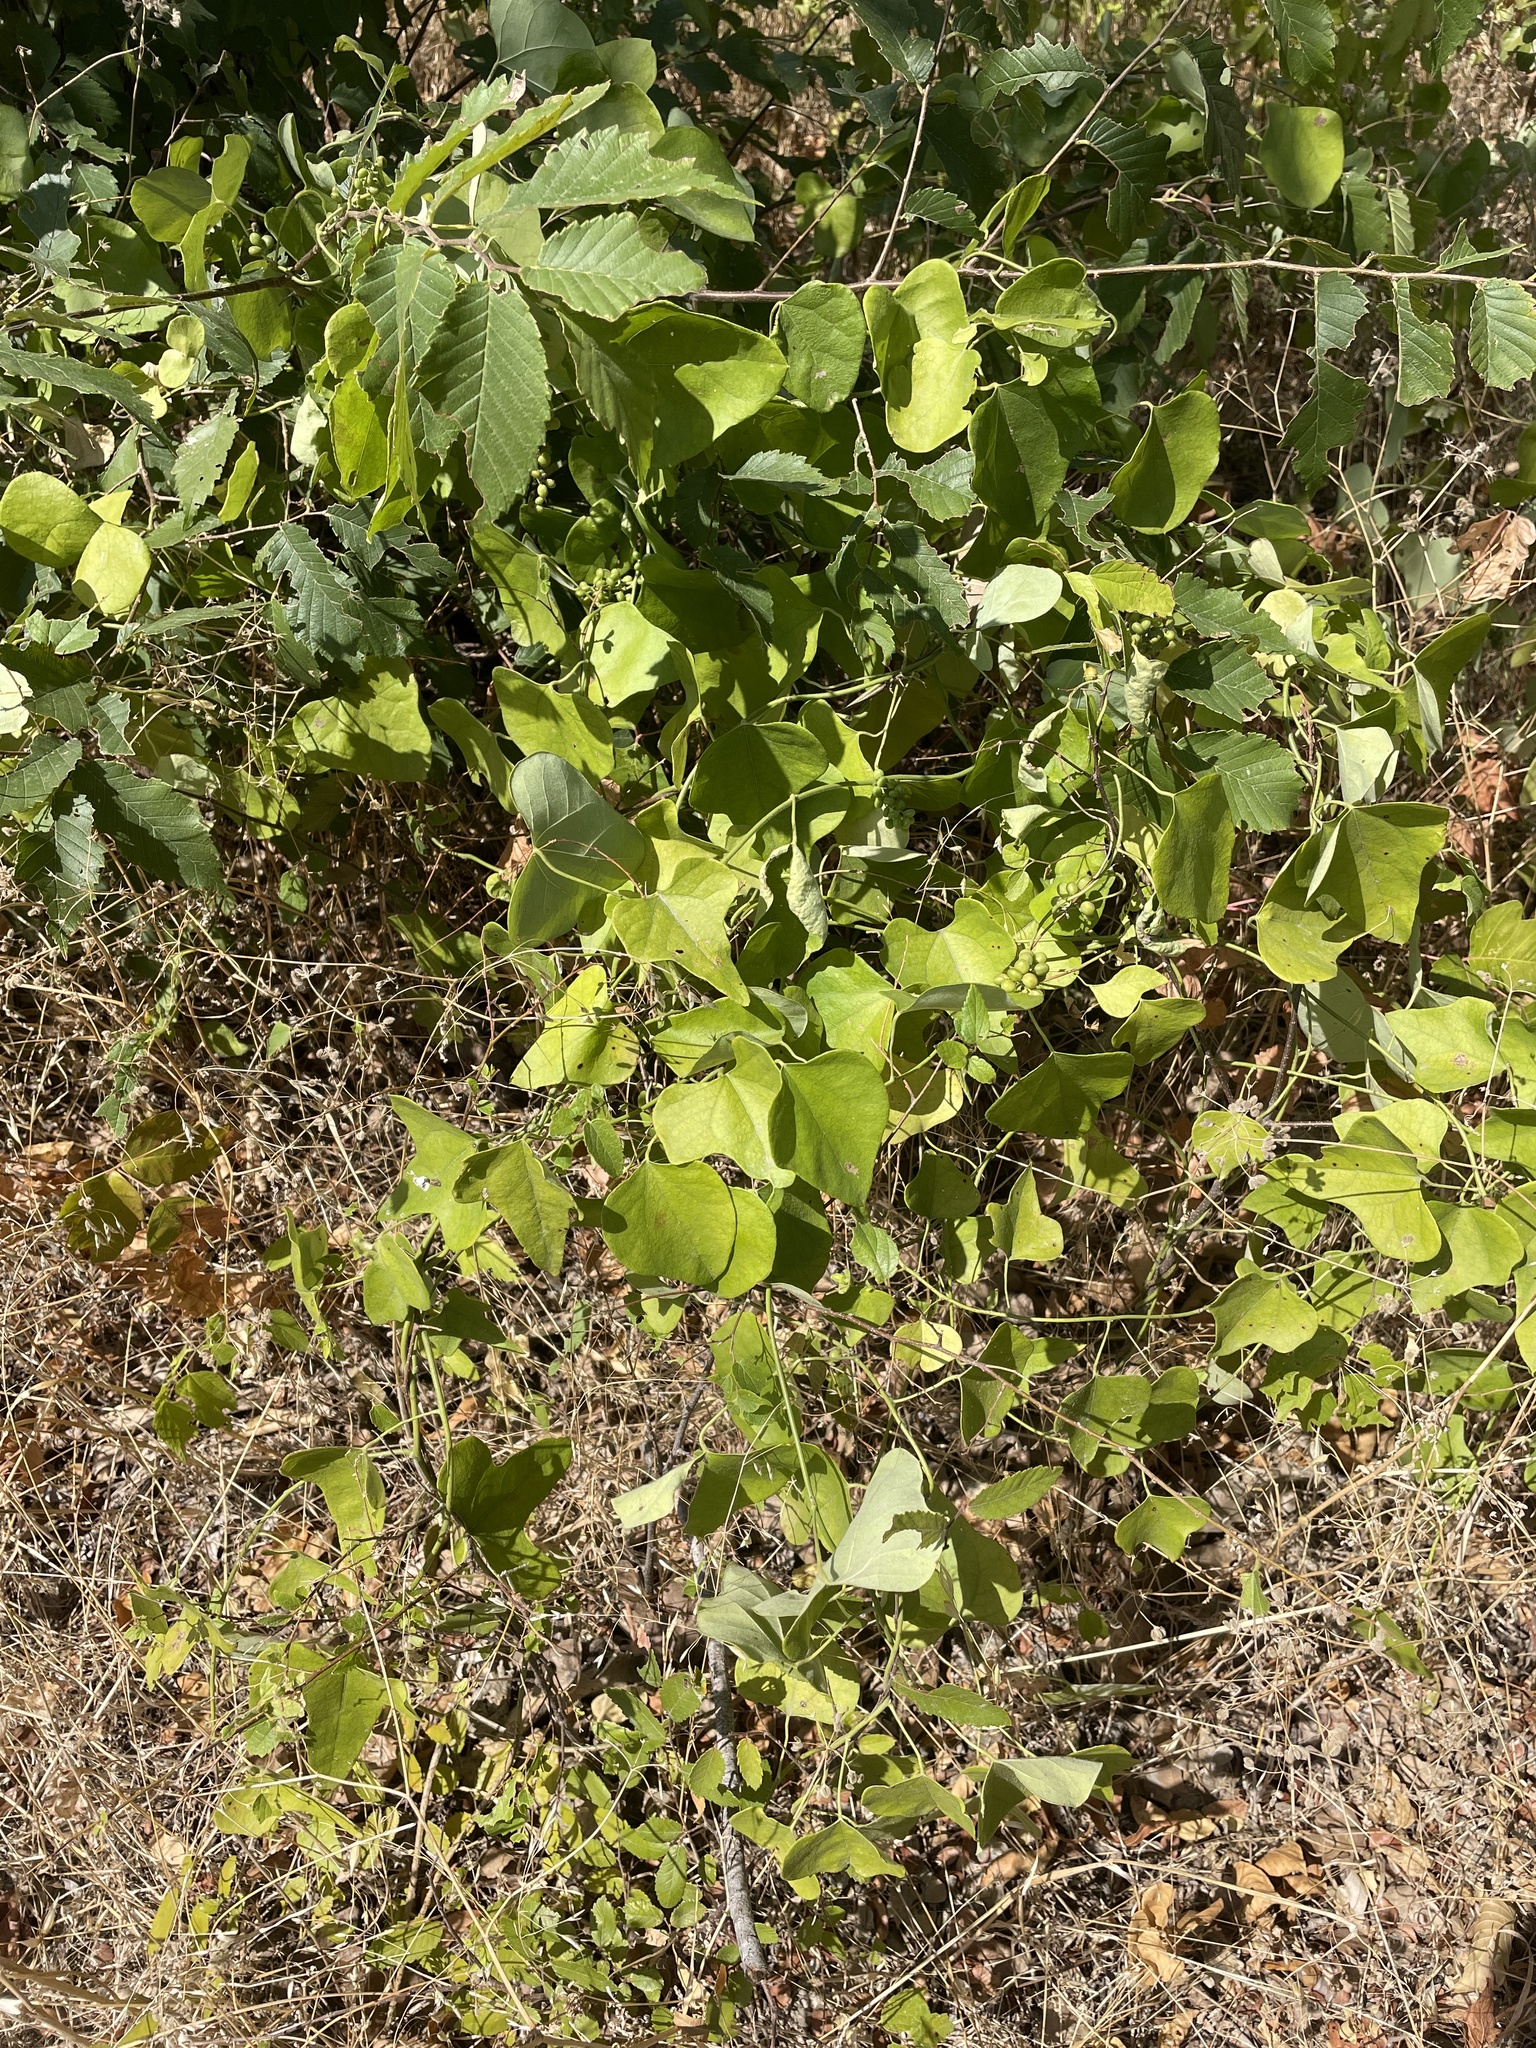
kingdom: Plantae
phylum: Tracheophyta
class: Magnoliopsida
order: Ranunculales
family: Menispermaceae
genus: Cocculus
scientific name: Cocculus carolinus
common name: Carolina moonseed
